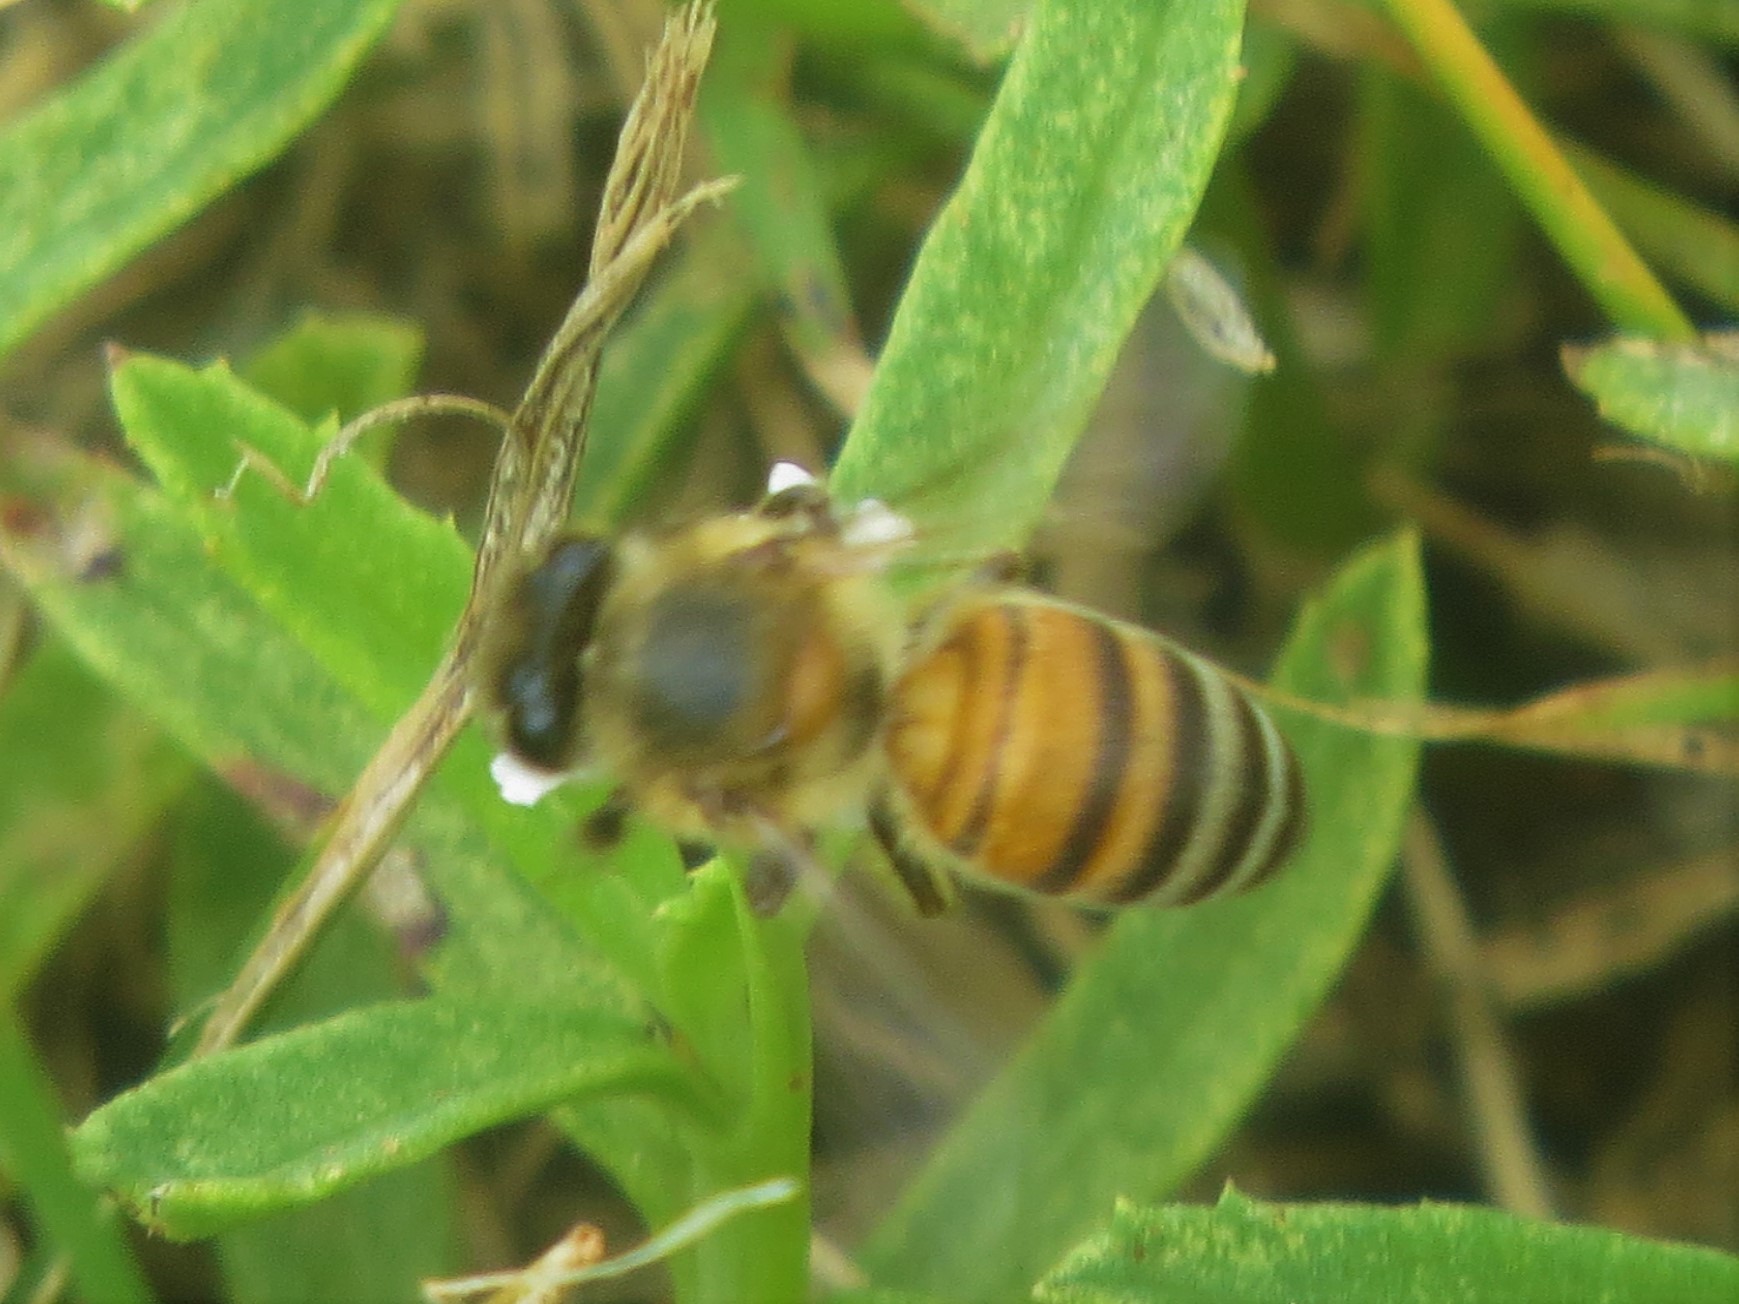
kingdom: Animalia
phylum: Arthropoda
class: Insecta
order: Hymenoptera
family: Apidae
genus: Apis
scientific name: Apis mellifera
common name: Honey bee
